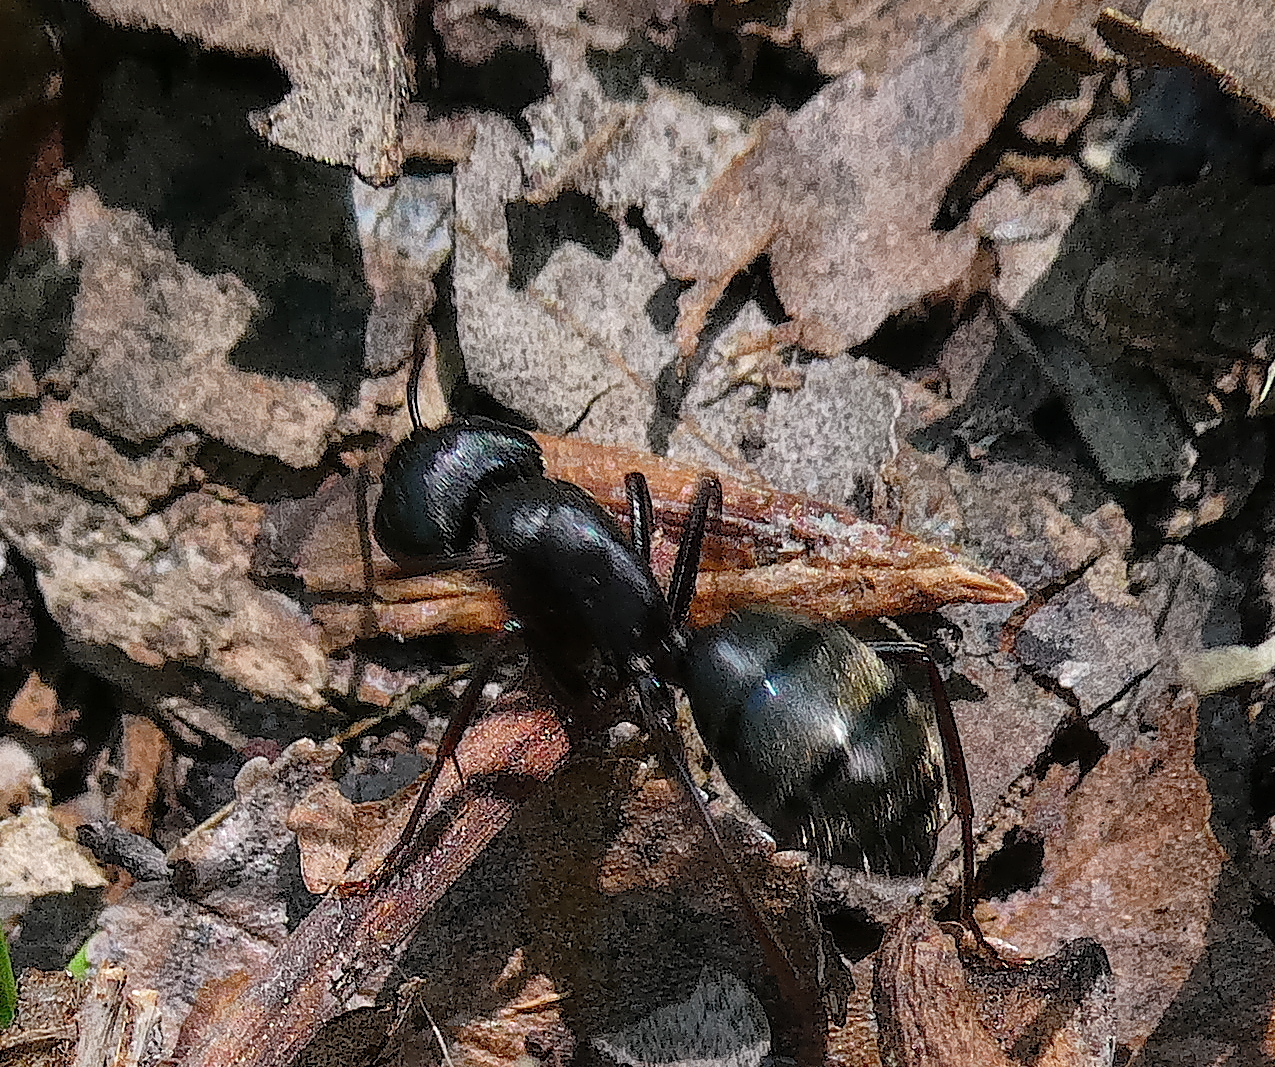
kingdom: Animalia
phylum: Arthropoda
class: Insecta
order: Hymenoptera
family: Formicidae
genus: Camponotus
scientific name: Camponotus pennsylvanicus
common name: Black carpenter ant
